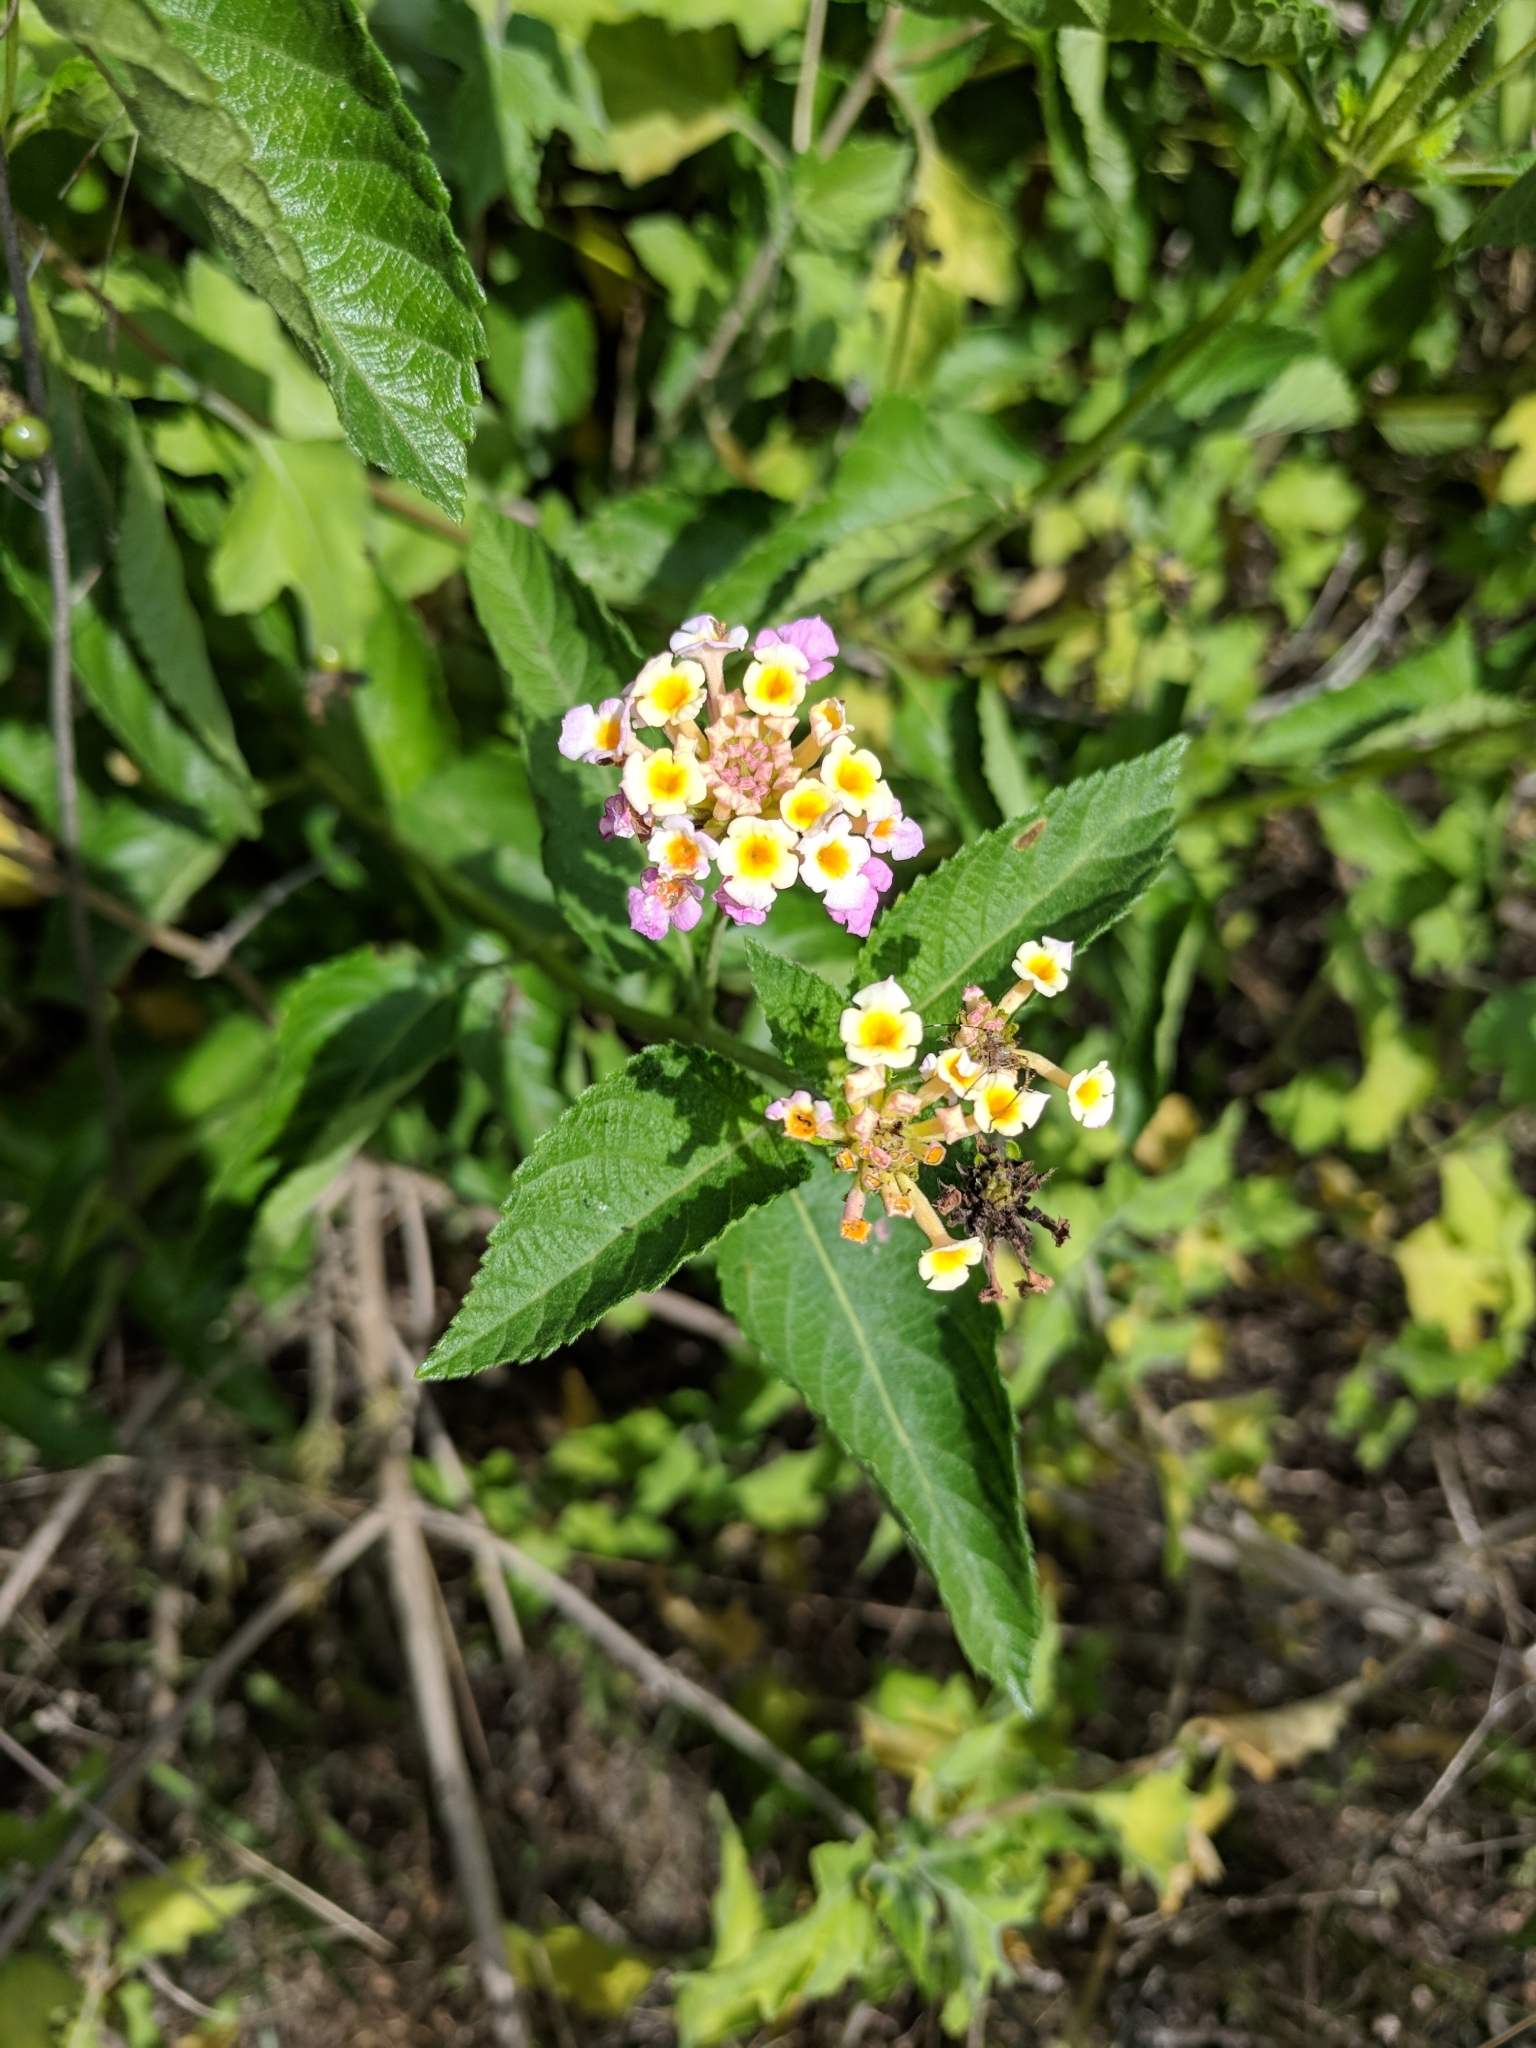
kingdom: Plantae
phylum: Tracheophyta
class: Magnoliopsida
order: Lamiales
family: Verbenaceae
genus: Lantana
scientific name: Lantana strigocamara
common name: Lantana
